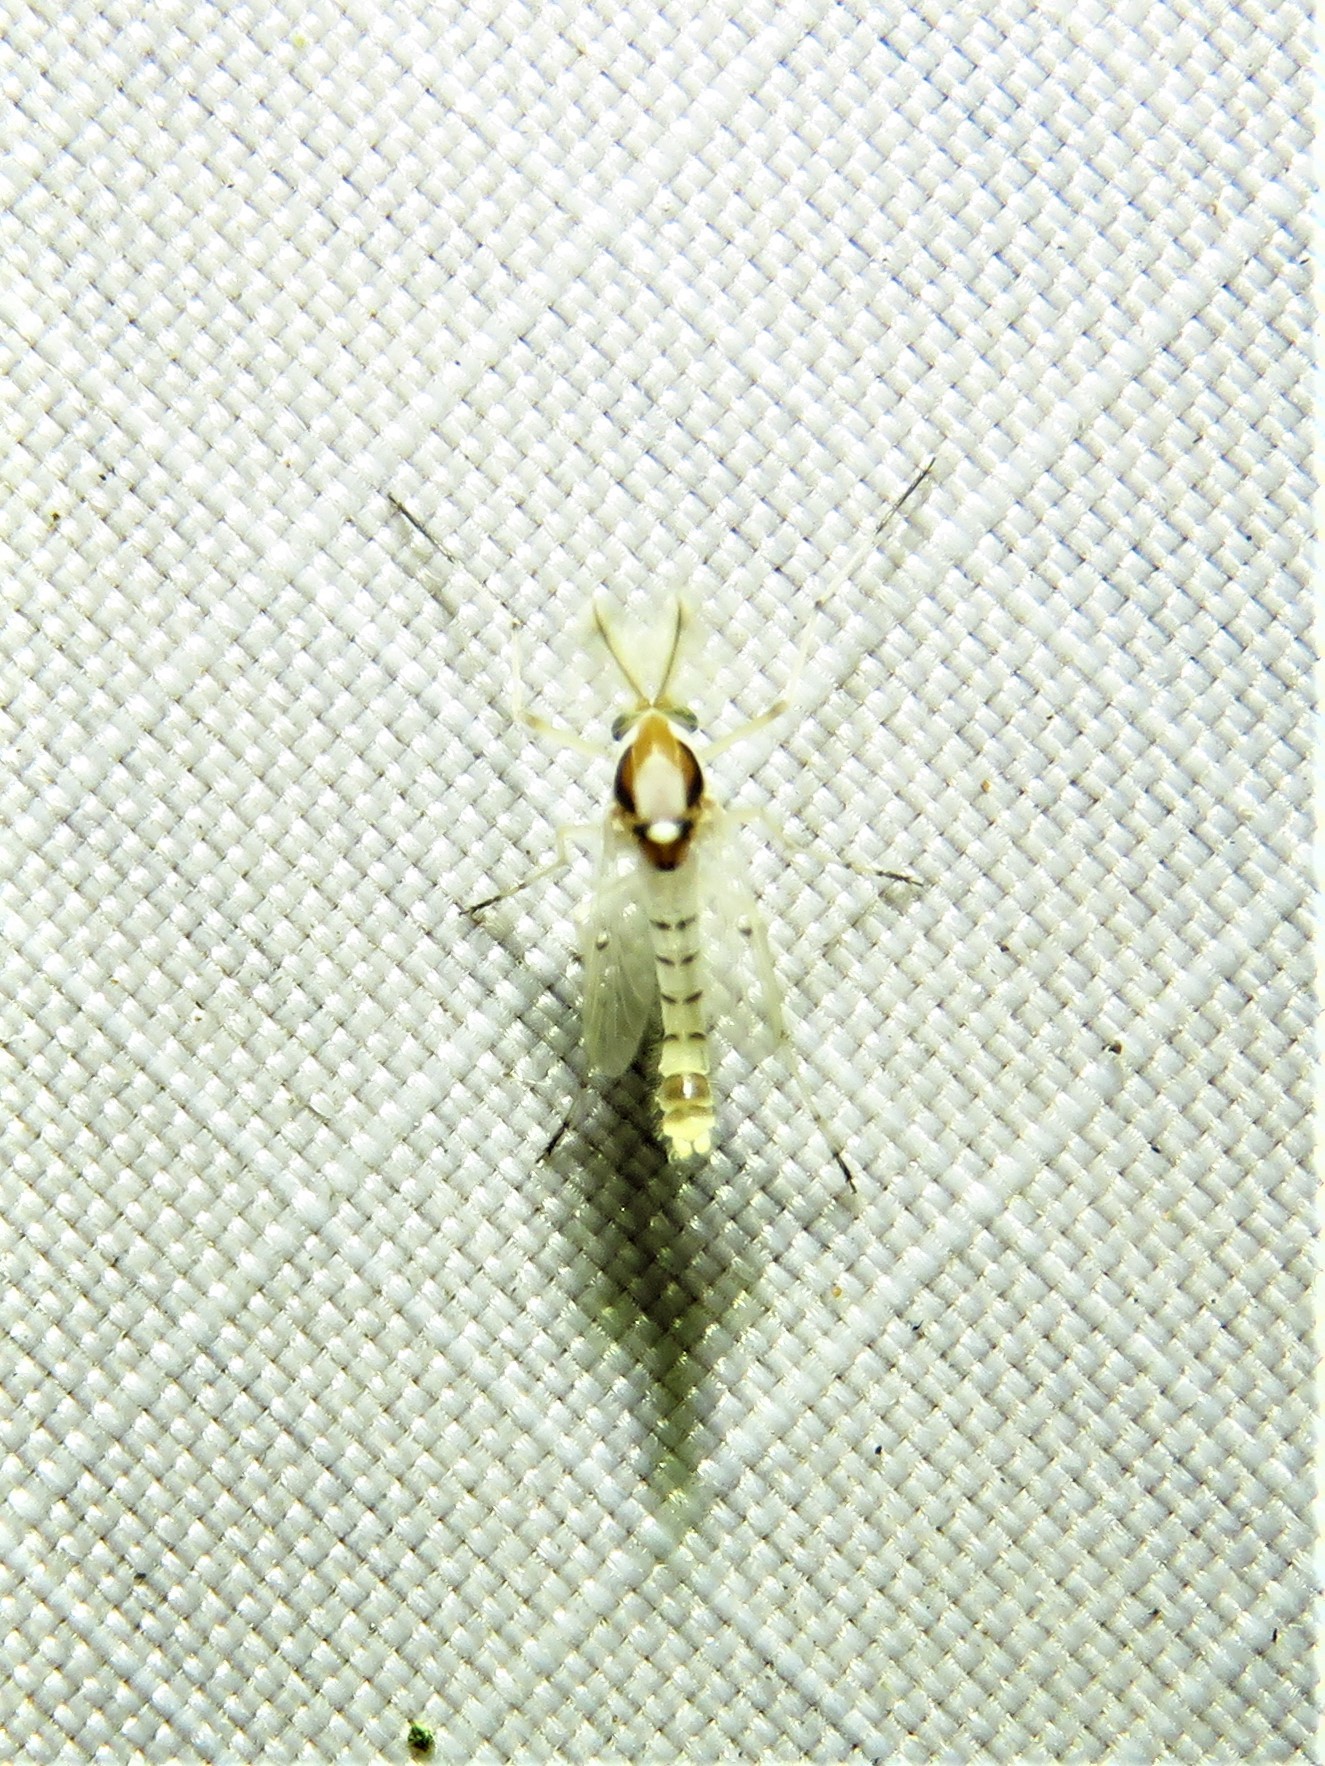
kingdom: Animalia
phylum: Arthropoda
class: Insecta
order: Diptera
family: Chironomidae
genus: Coelotanypus
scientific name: Coelotanypus concinnus
